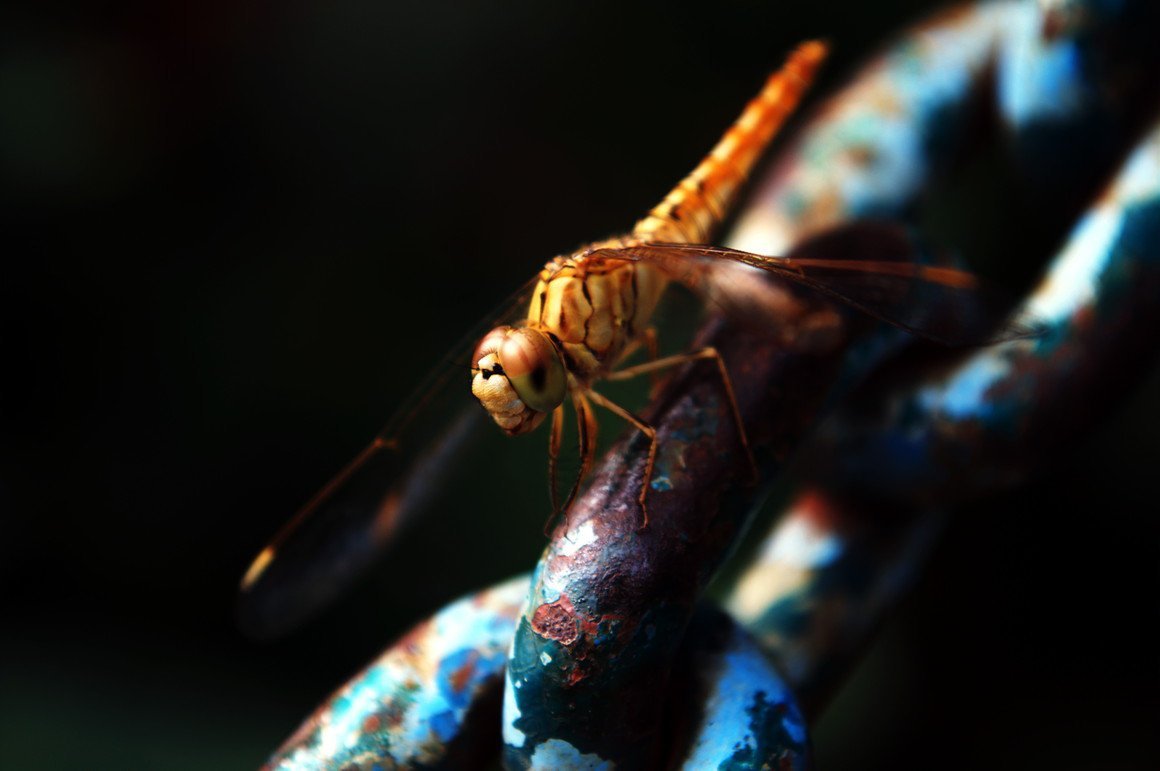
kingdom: Animalia
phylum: Arthropoda
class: Insecta
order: Odonata
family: Libellulidae
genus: Brachythemis
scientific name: Brachythemis contaminata
